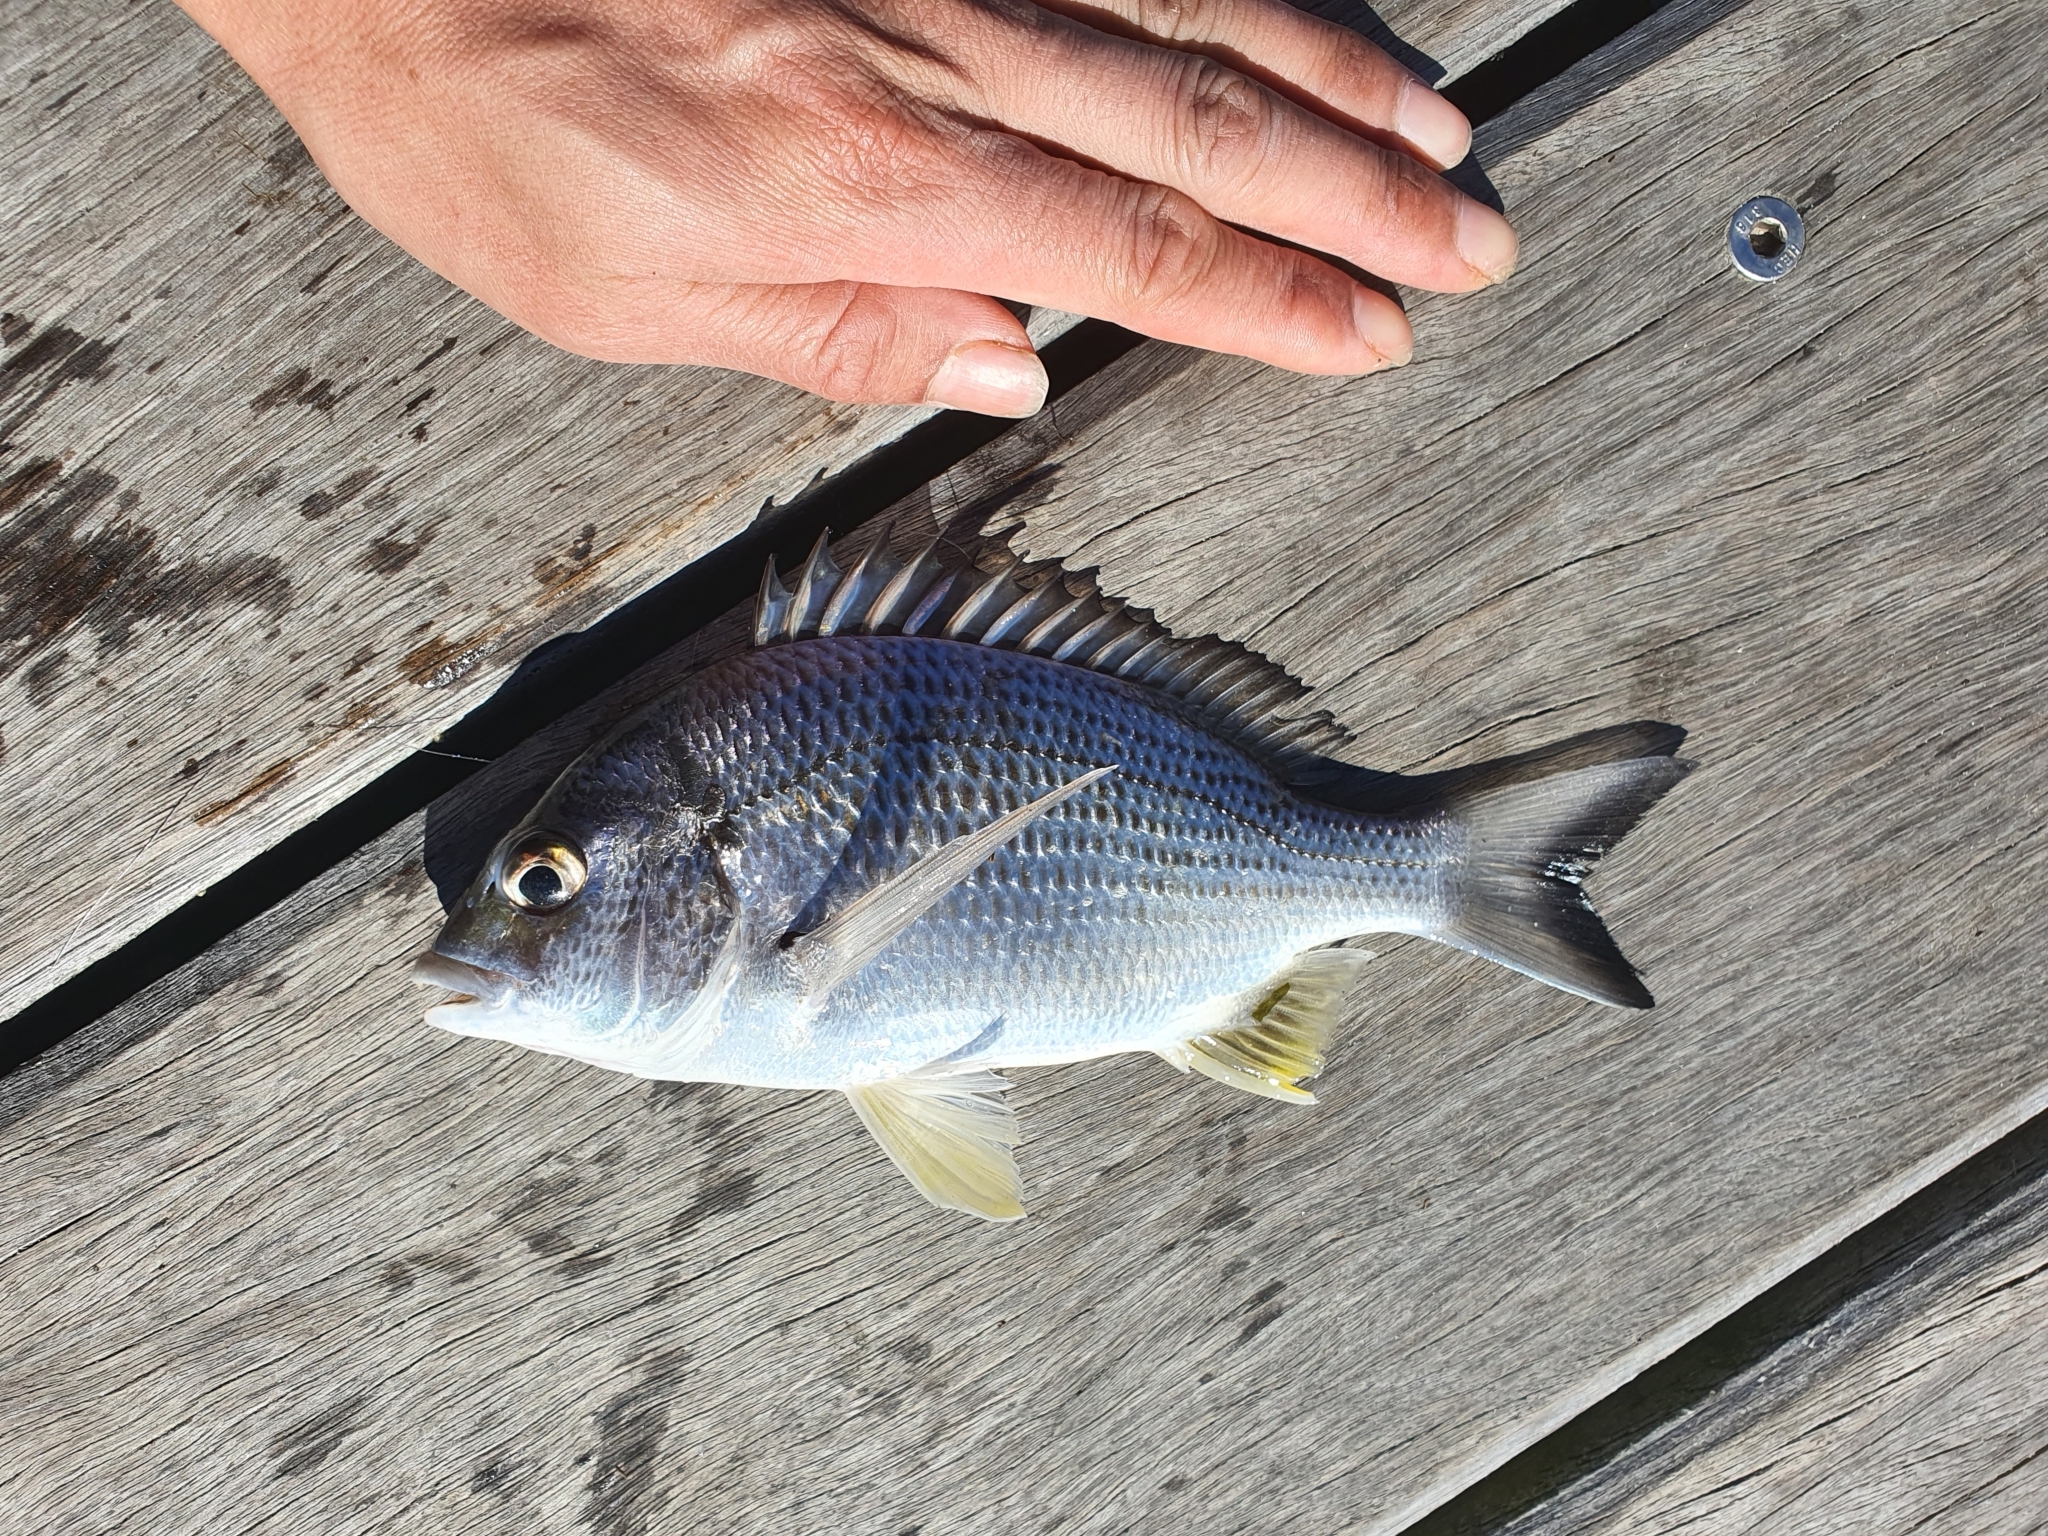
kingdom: Animalia
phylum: Chordata
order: Perciformes
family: Sparidae
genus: Acanthopagrus
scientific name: Acanthopagrus australis
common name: Surf bream
